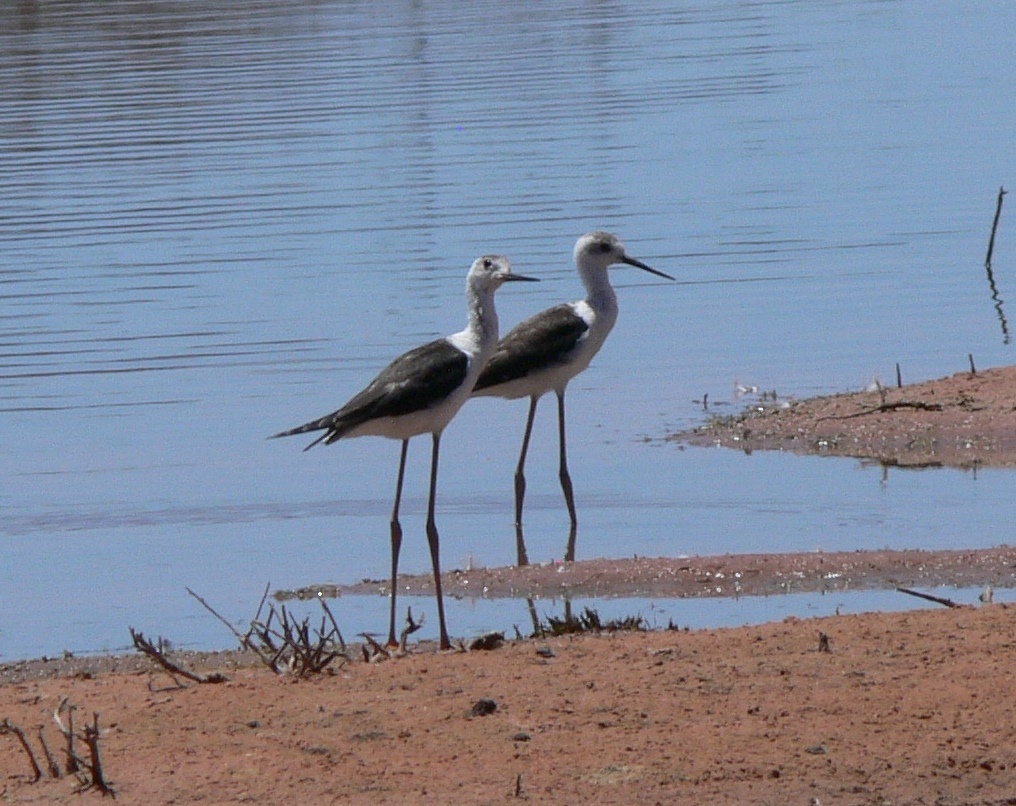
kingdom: Animalia
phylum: Chordata
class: Aves
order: Charadriiformes
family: Recurvirostridae
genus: Himantopus
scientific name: Himantopus leucocephalus
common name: White-headed stilt
